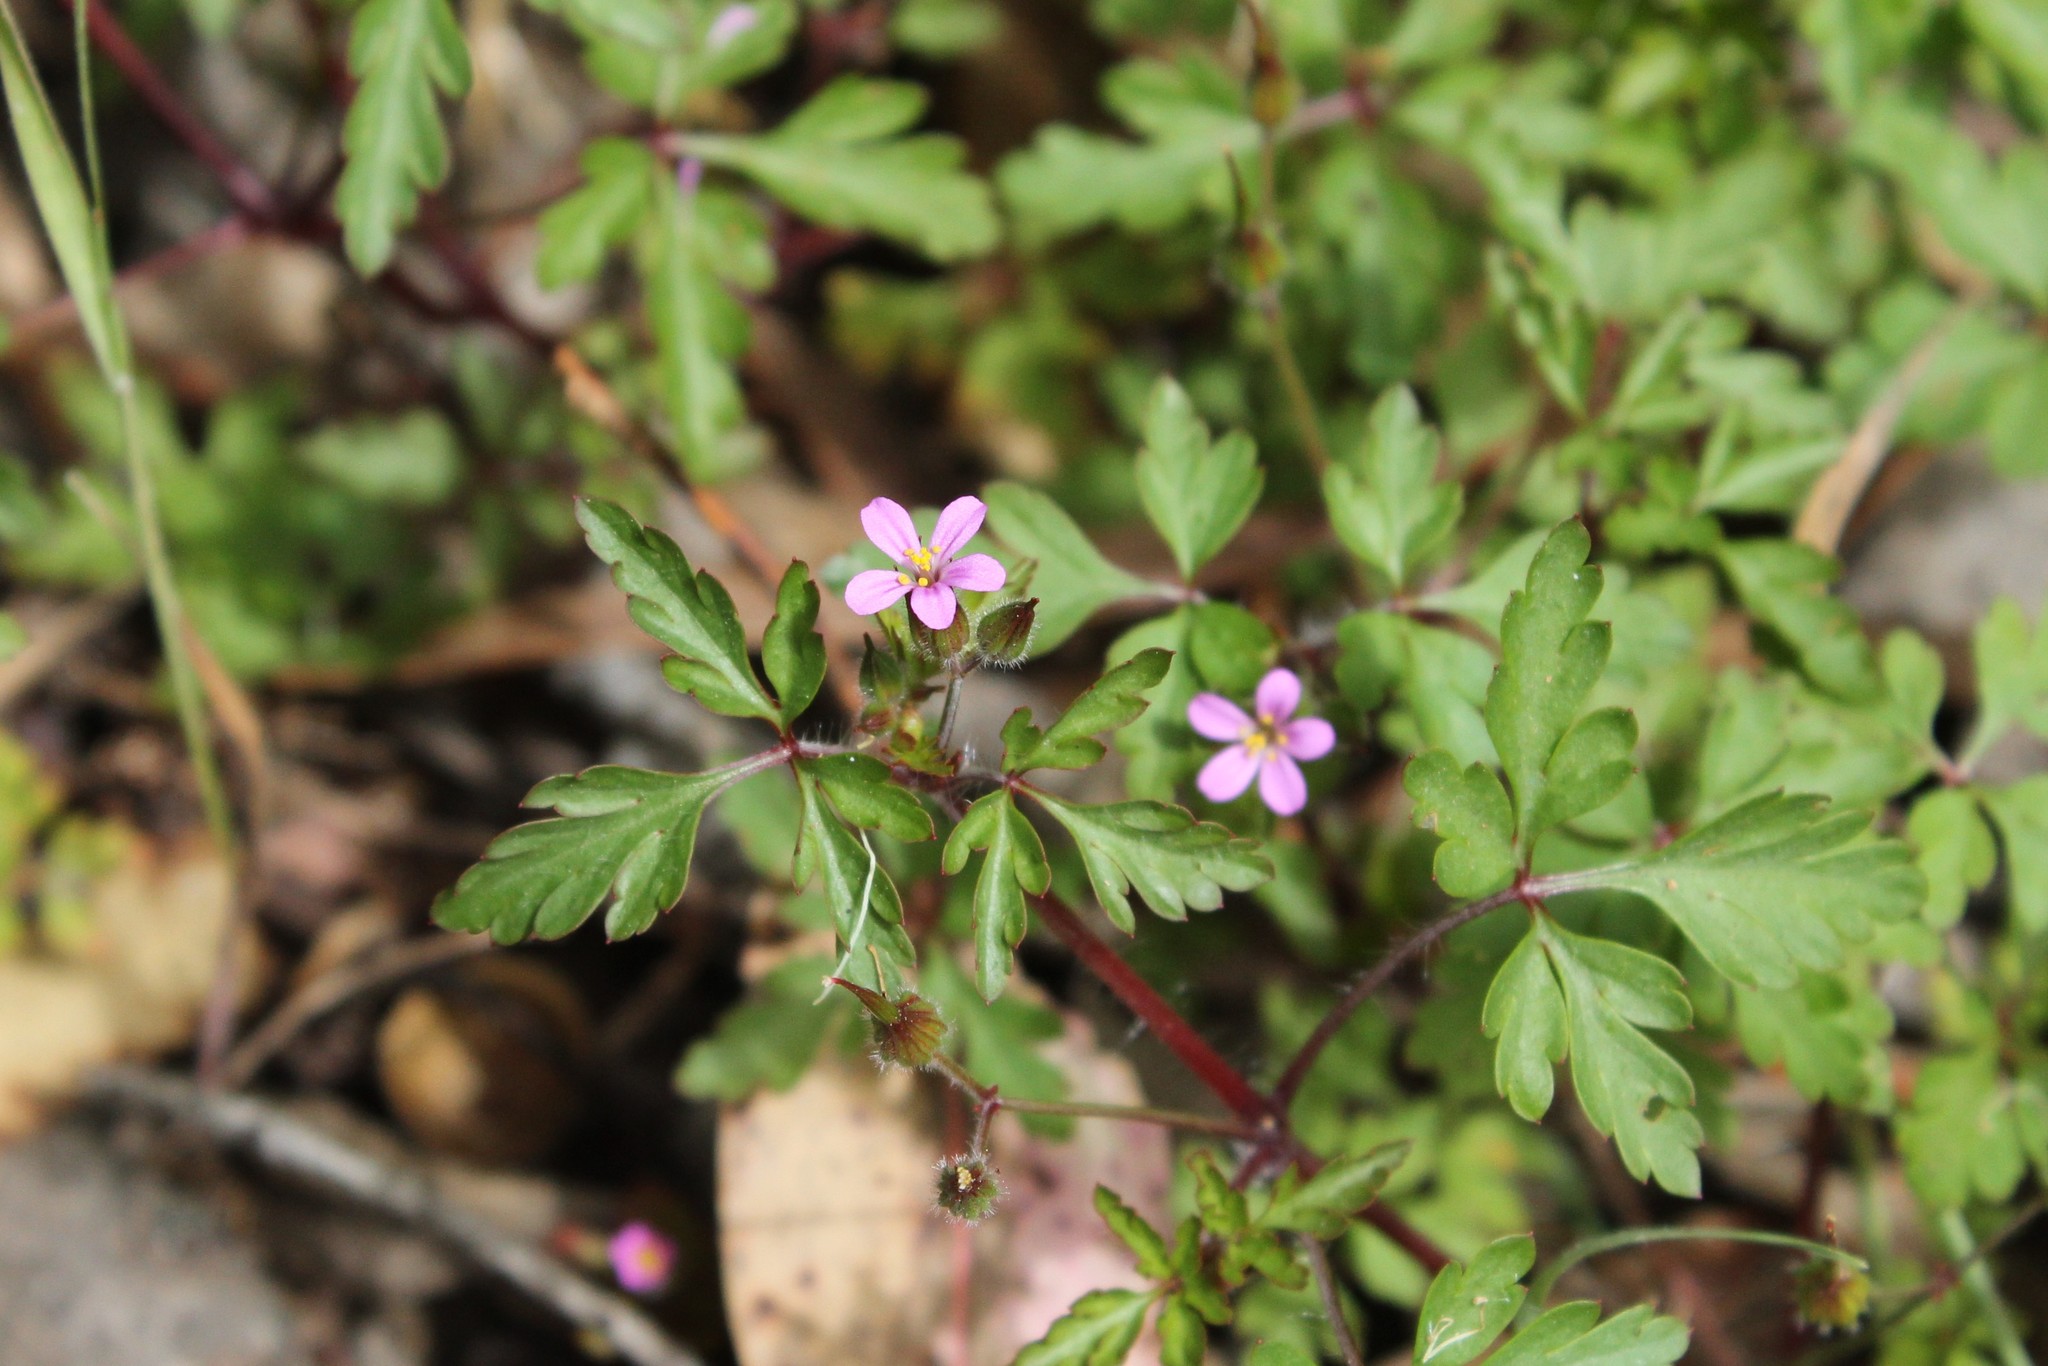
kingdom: Plantae
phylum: Tracheophyta
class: Magnoliopsida
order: Geraniales
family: Geraniaceae
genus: Geranium
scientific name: Geranium purpureum
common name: Little-robin
